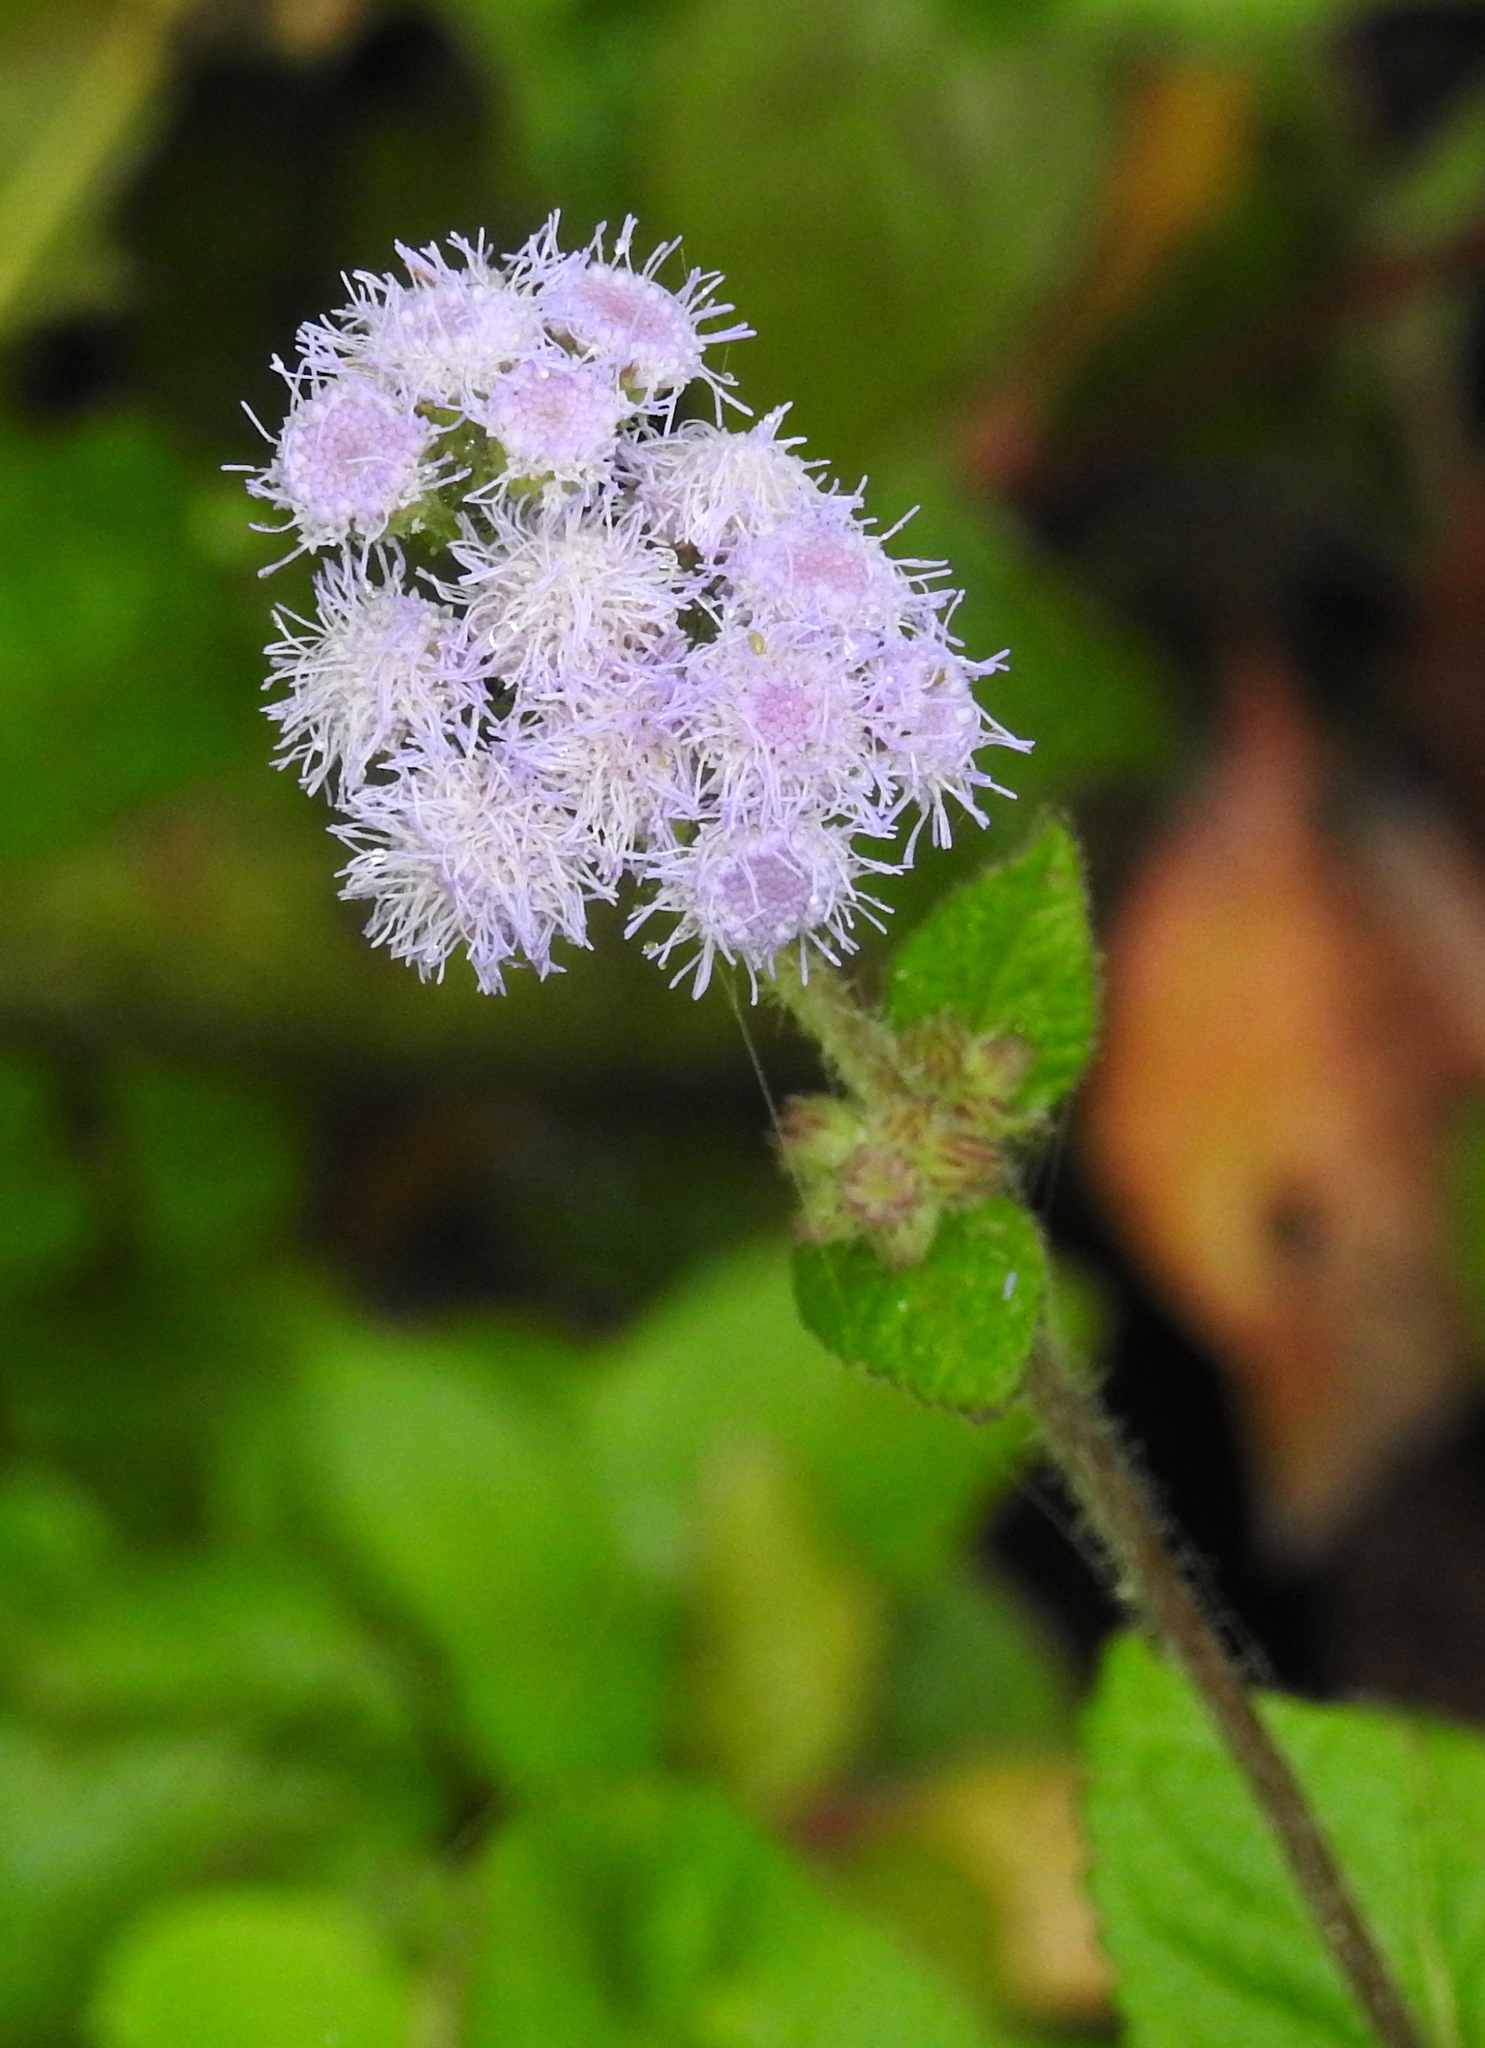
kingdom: Plantae
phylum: Tracheophyta
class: Magnoliopsida
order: Asterales
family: Asteraceae
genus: Ageratum
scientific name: Ageratum houstonianum
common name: Bluemink
